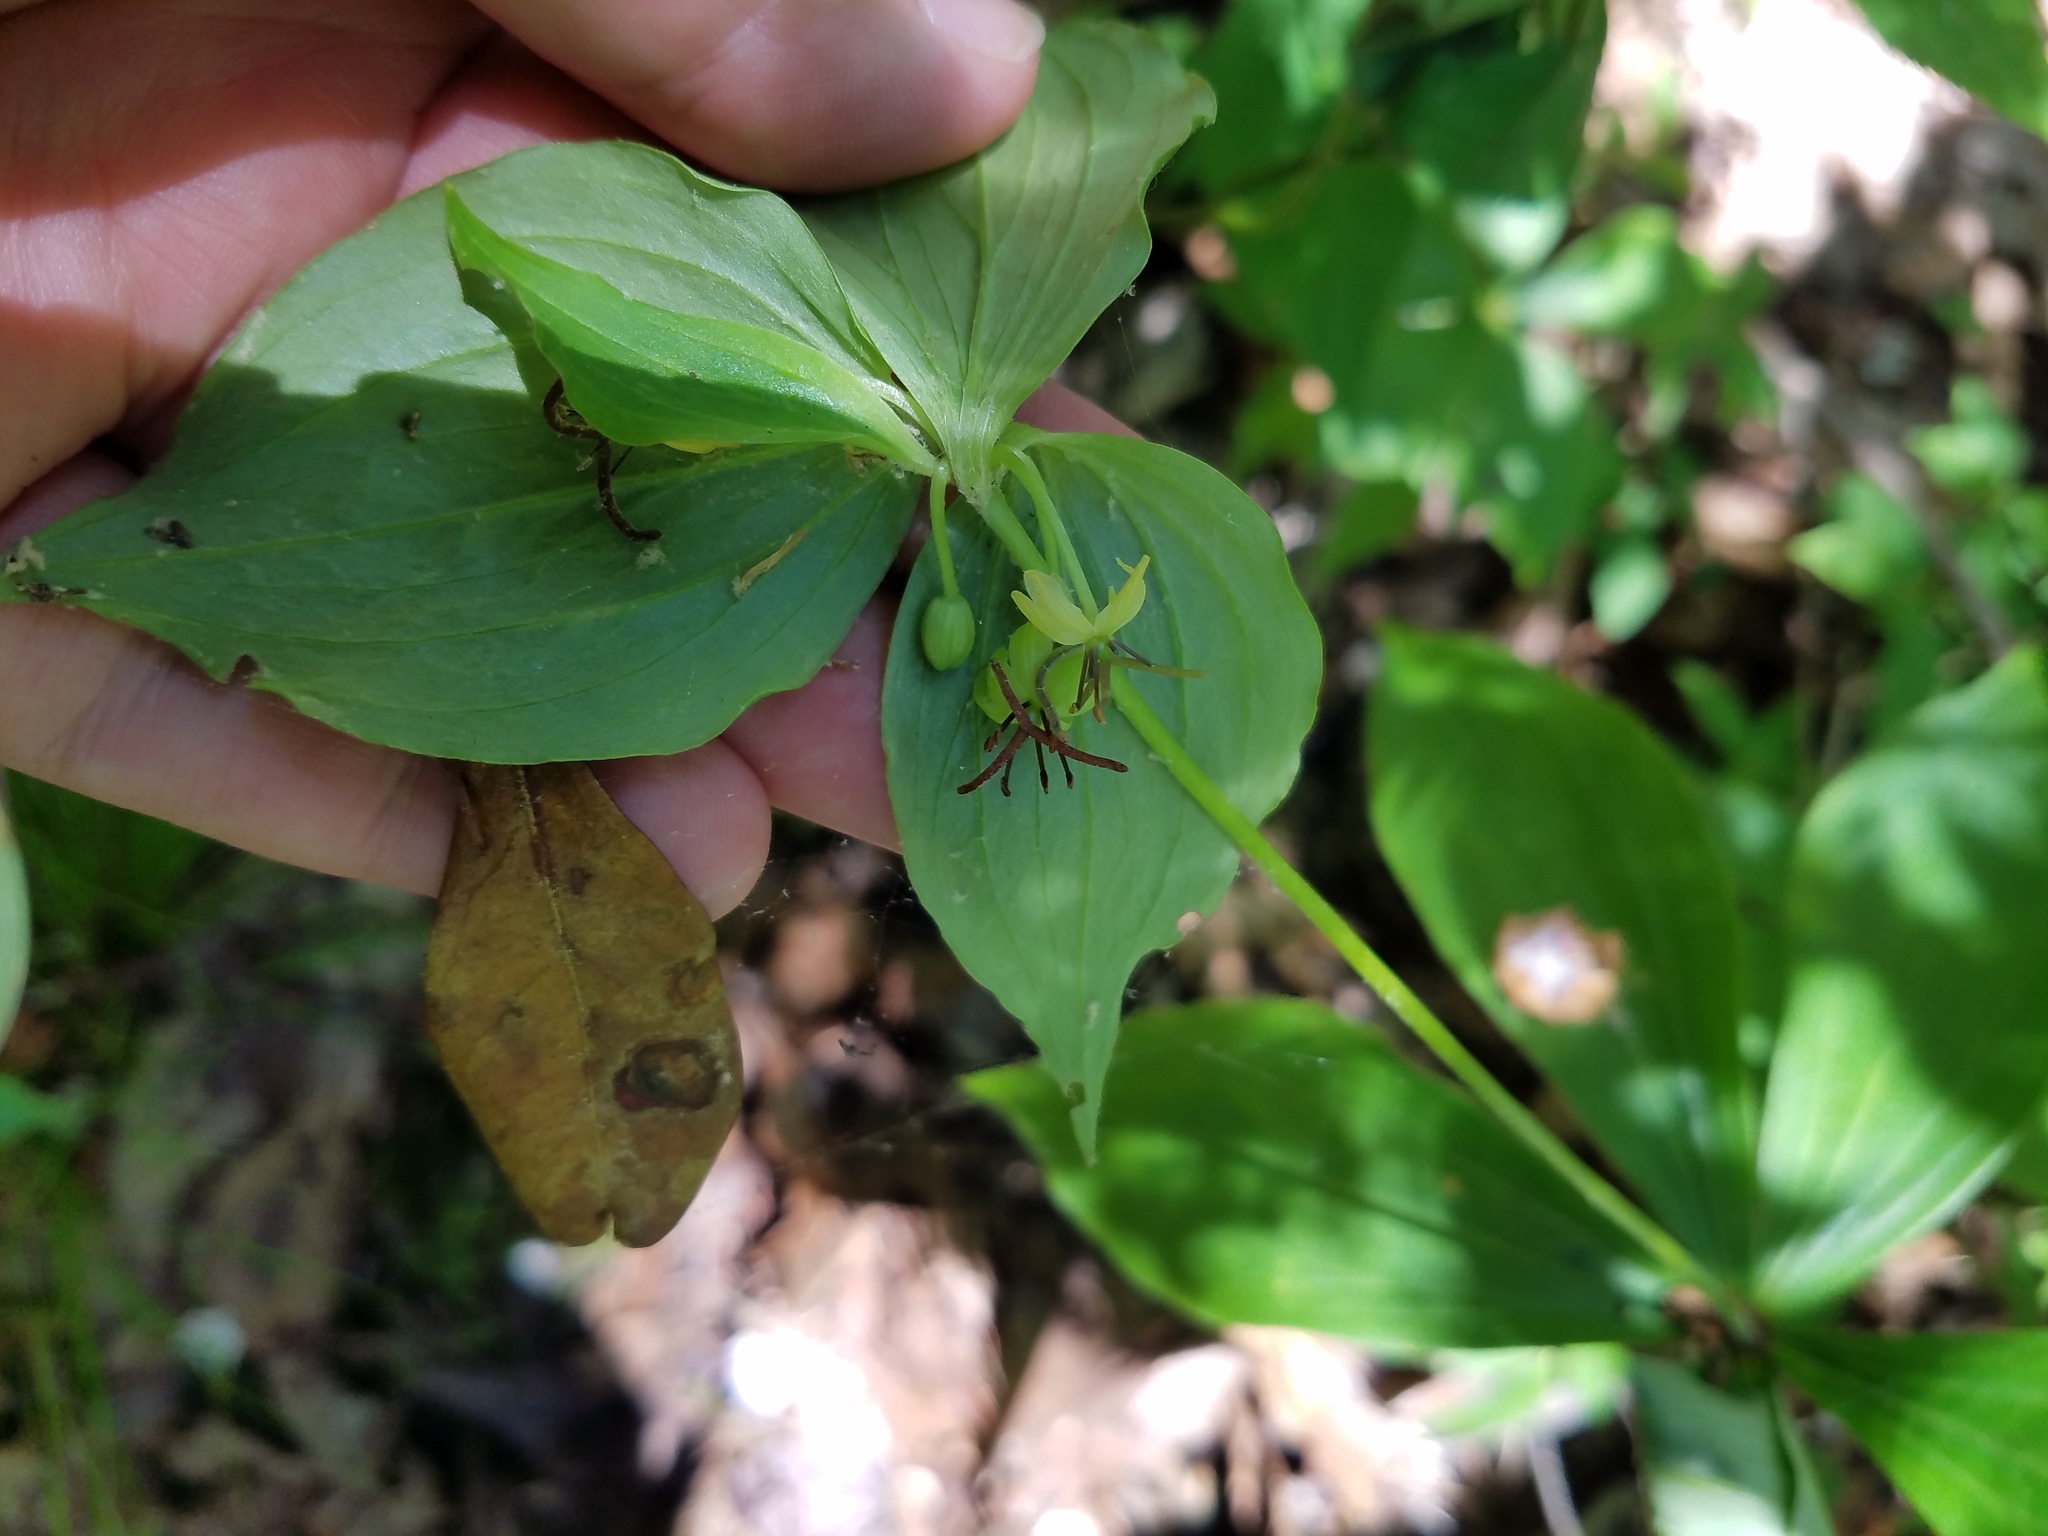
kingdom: Plantae
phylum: Tracheophyta
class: Liliopsida
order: Liliales
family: Liliaceae
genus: Medeola
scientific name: Medeola virginiana
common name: Indian cucumber-root
